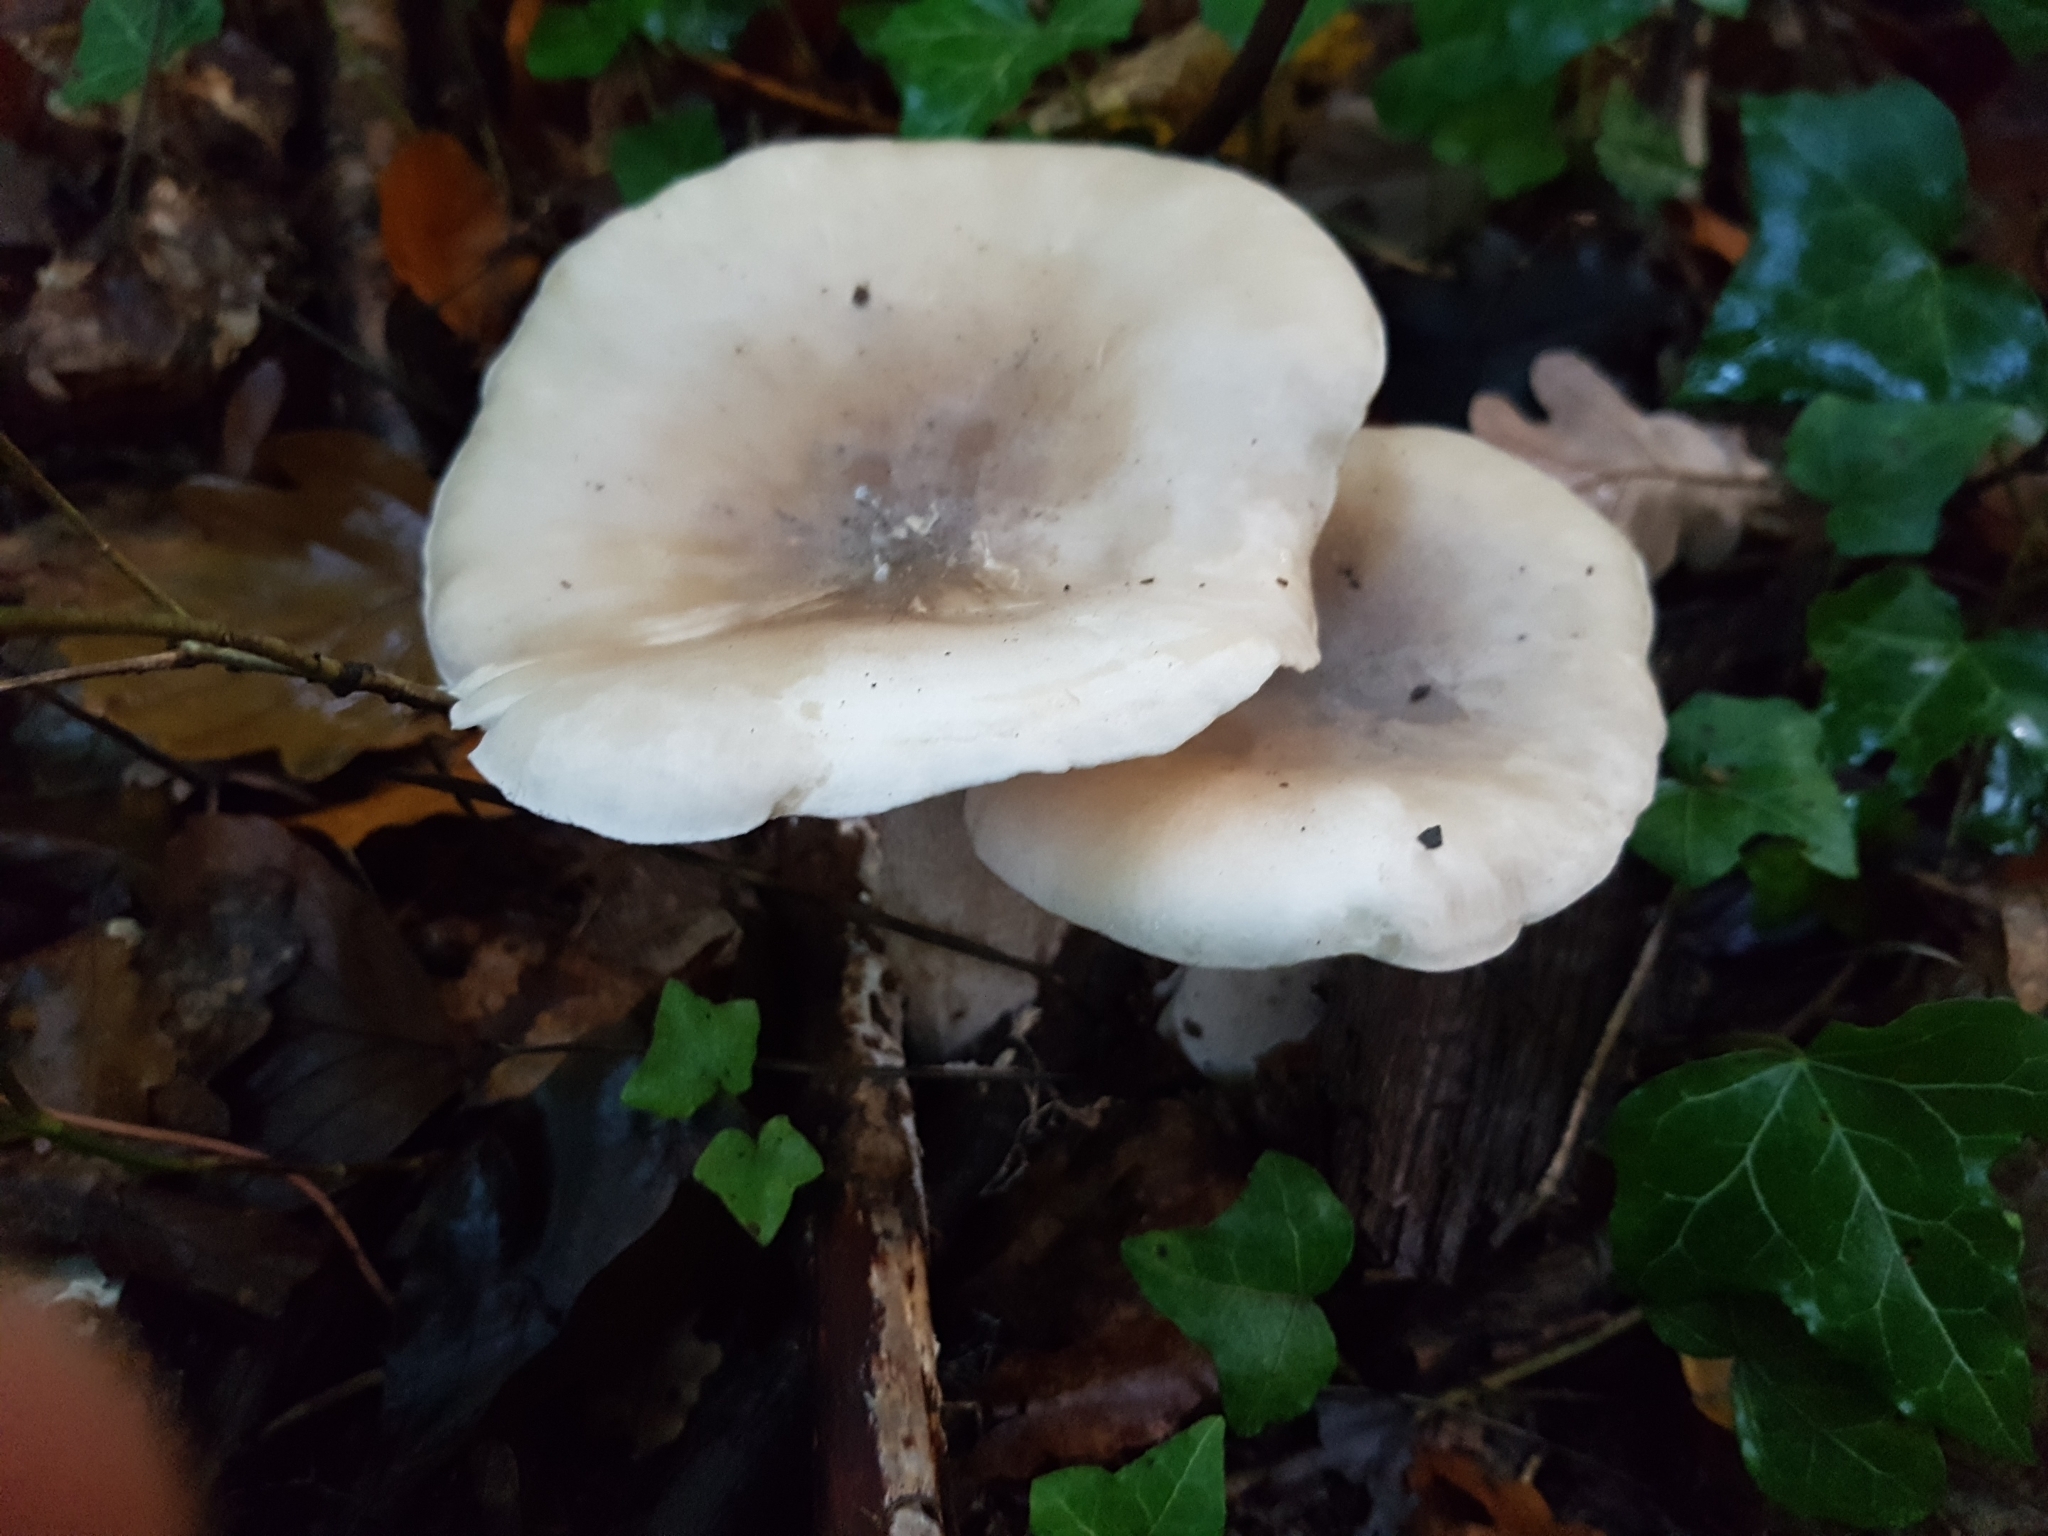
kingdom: Fungi
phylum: Basidiomycota
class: Agaricomycetes
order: Agaricales
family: Tricholomataceae
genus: Clitocybe
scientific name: Clitocybe nebularis
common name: Clouded agaric
